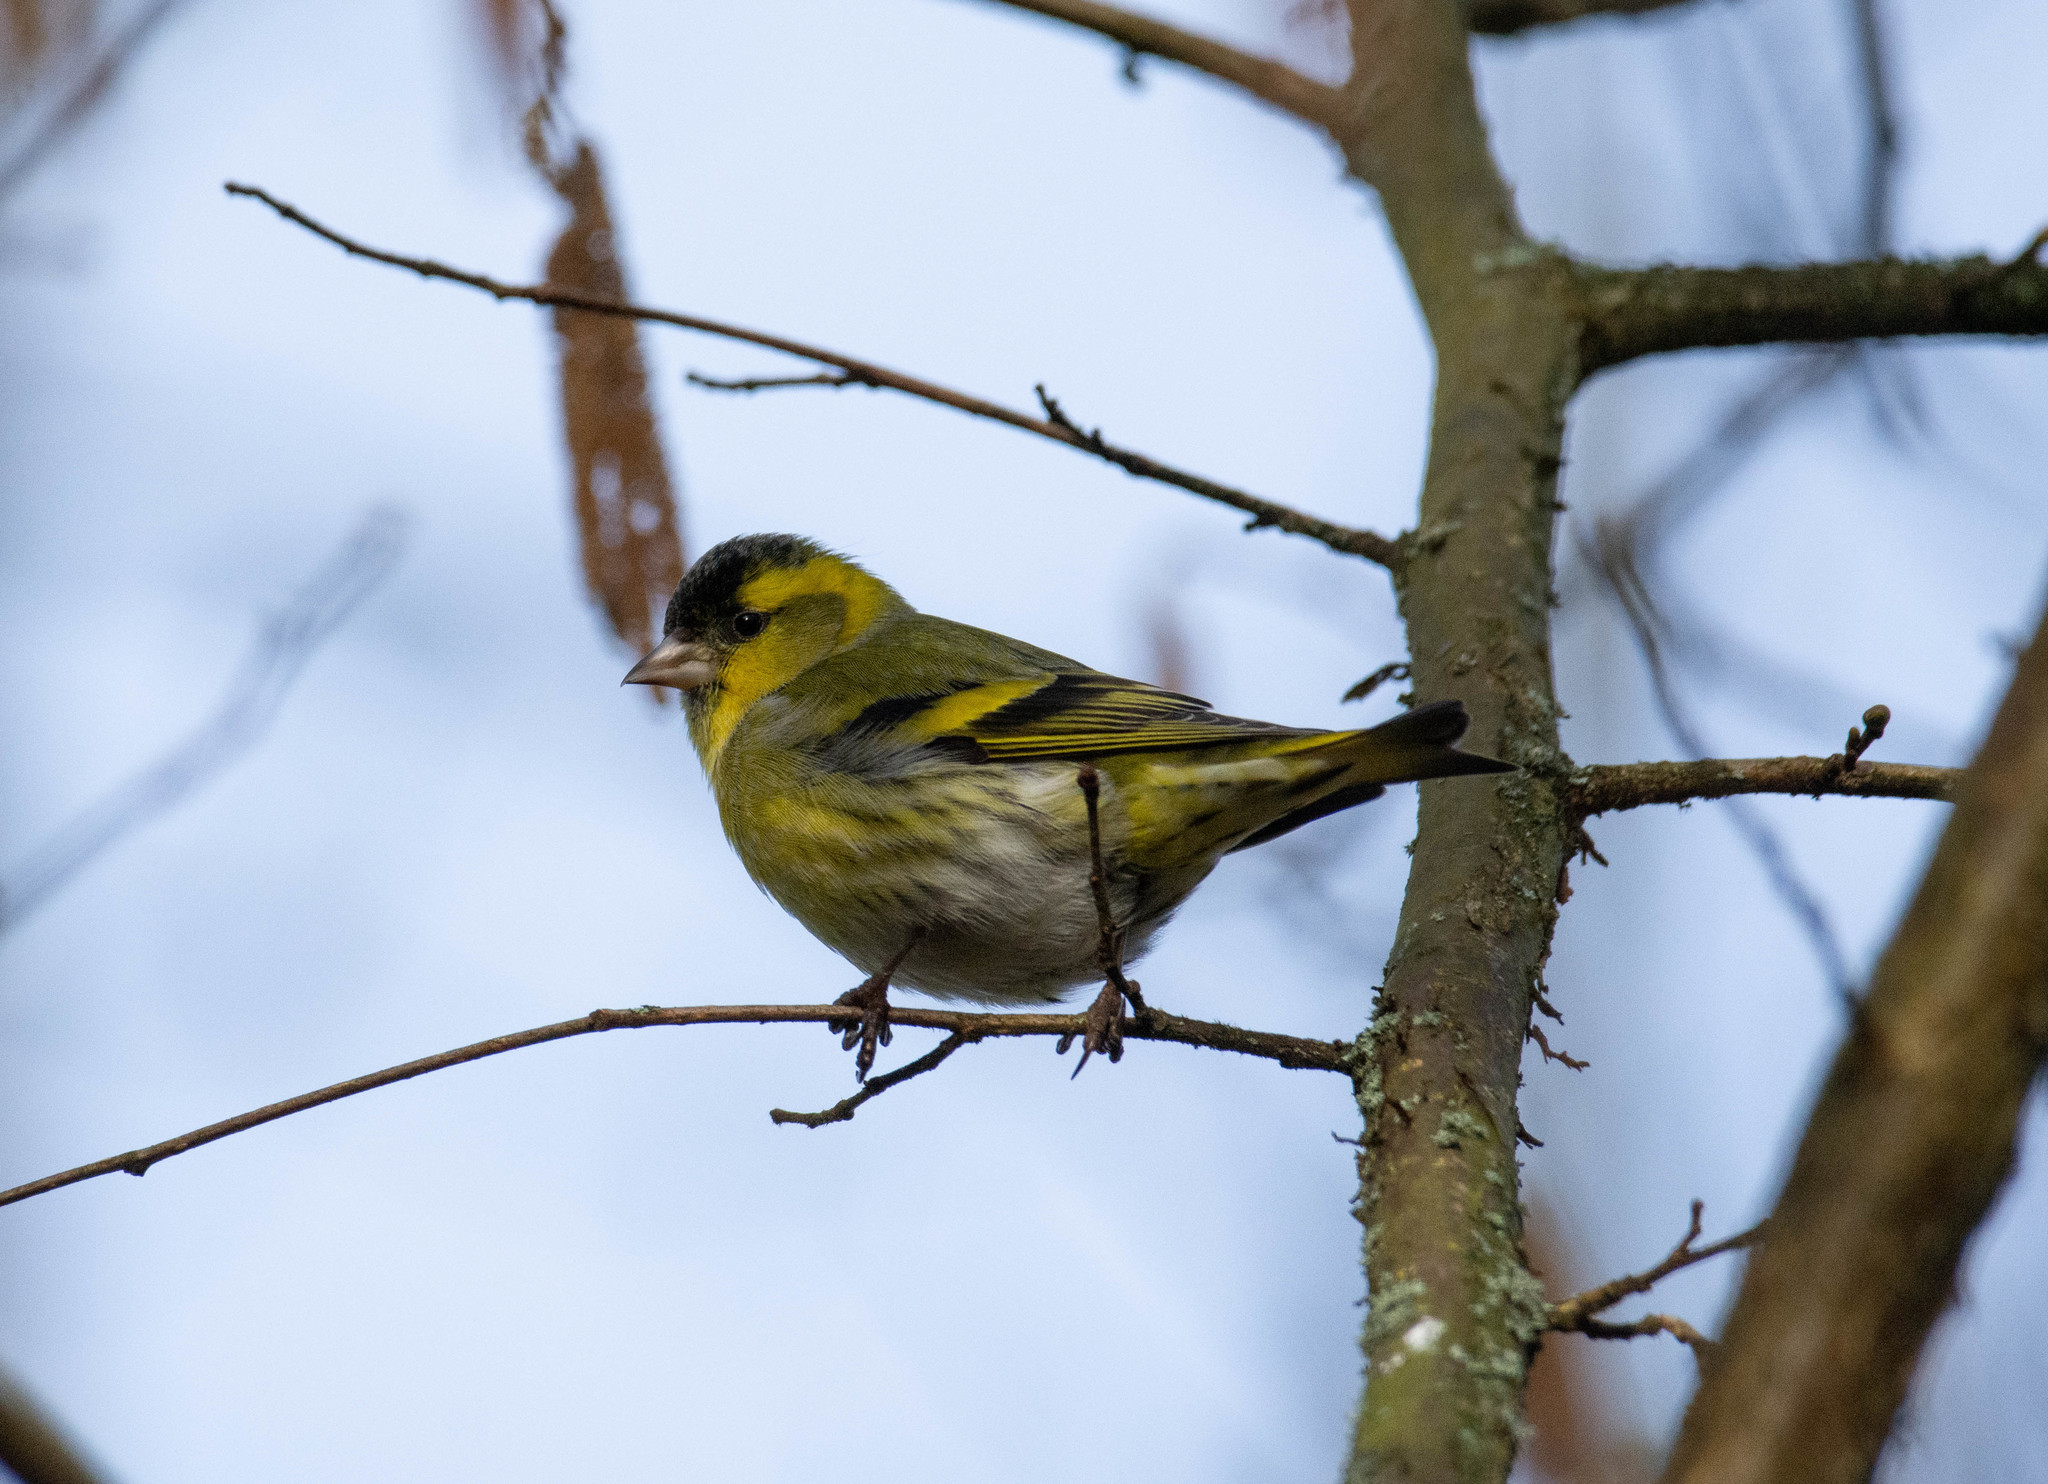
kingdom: Animalia
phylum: Chordata
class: Aves
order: Passeriformes
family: Fringillidae
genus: Spinus
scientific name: Spinus spinus
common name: Eurasian siskin
